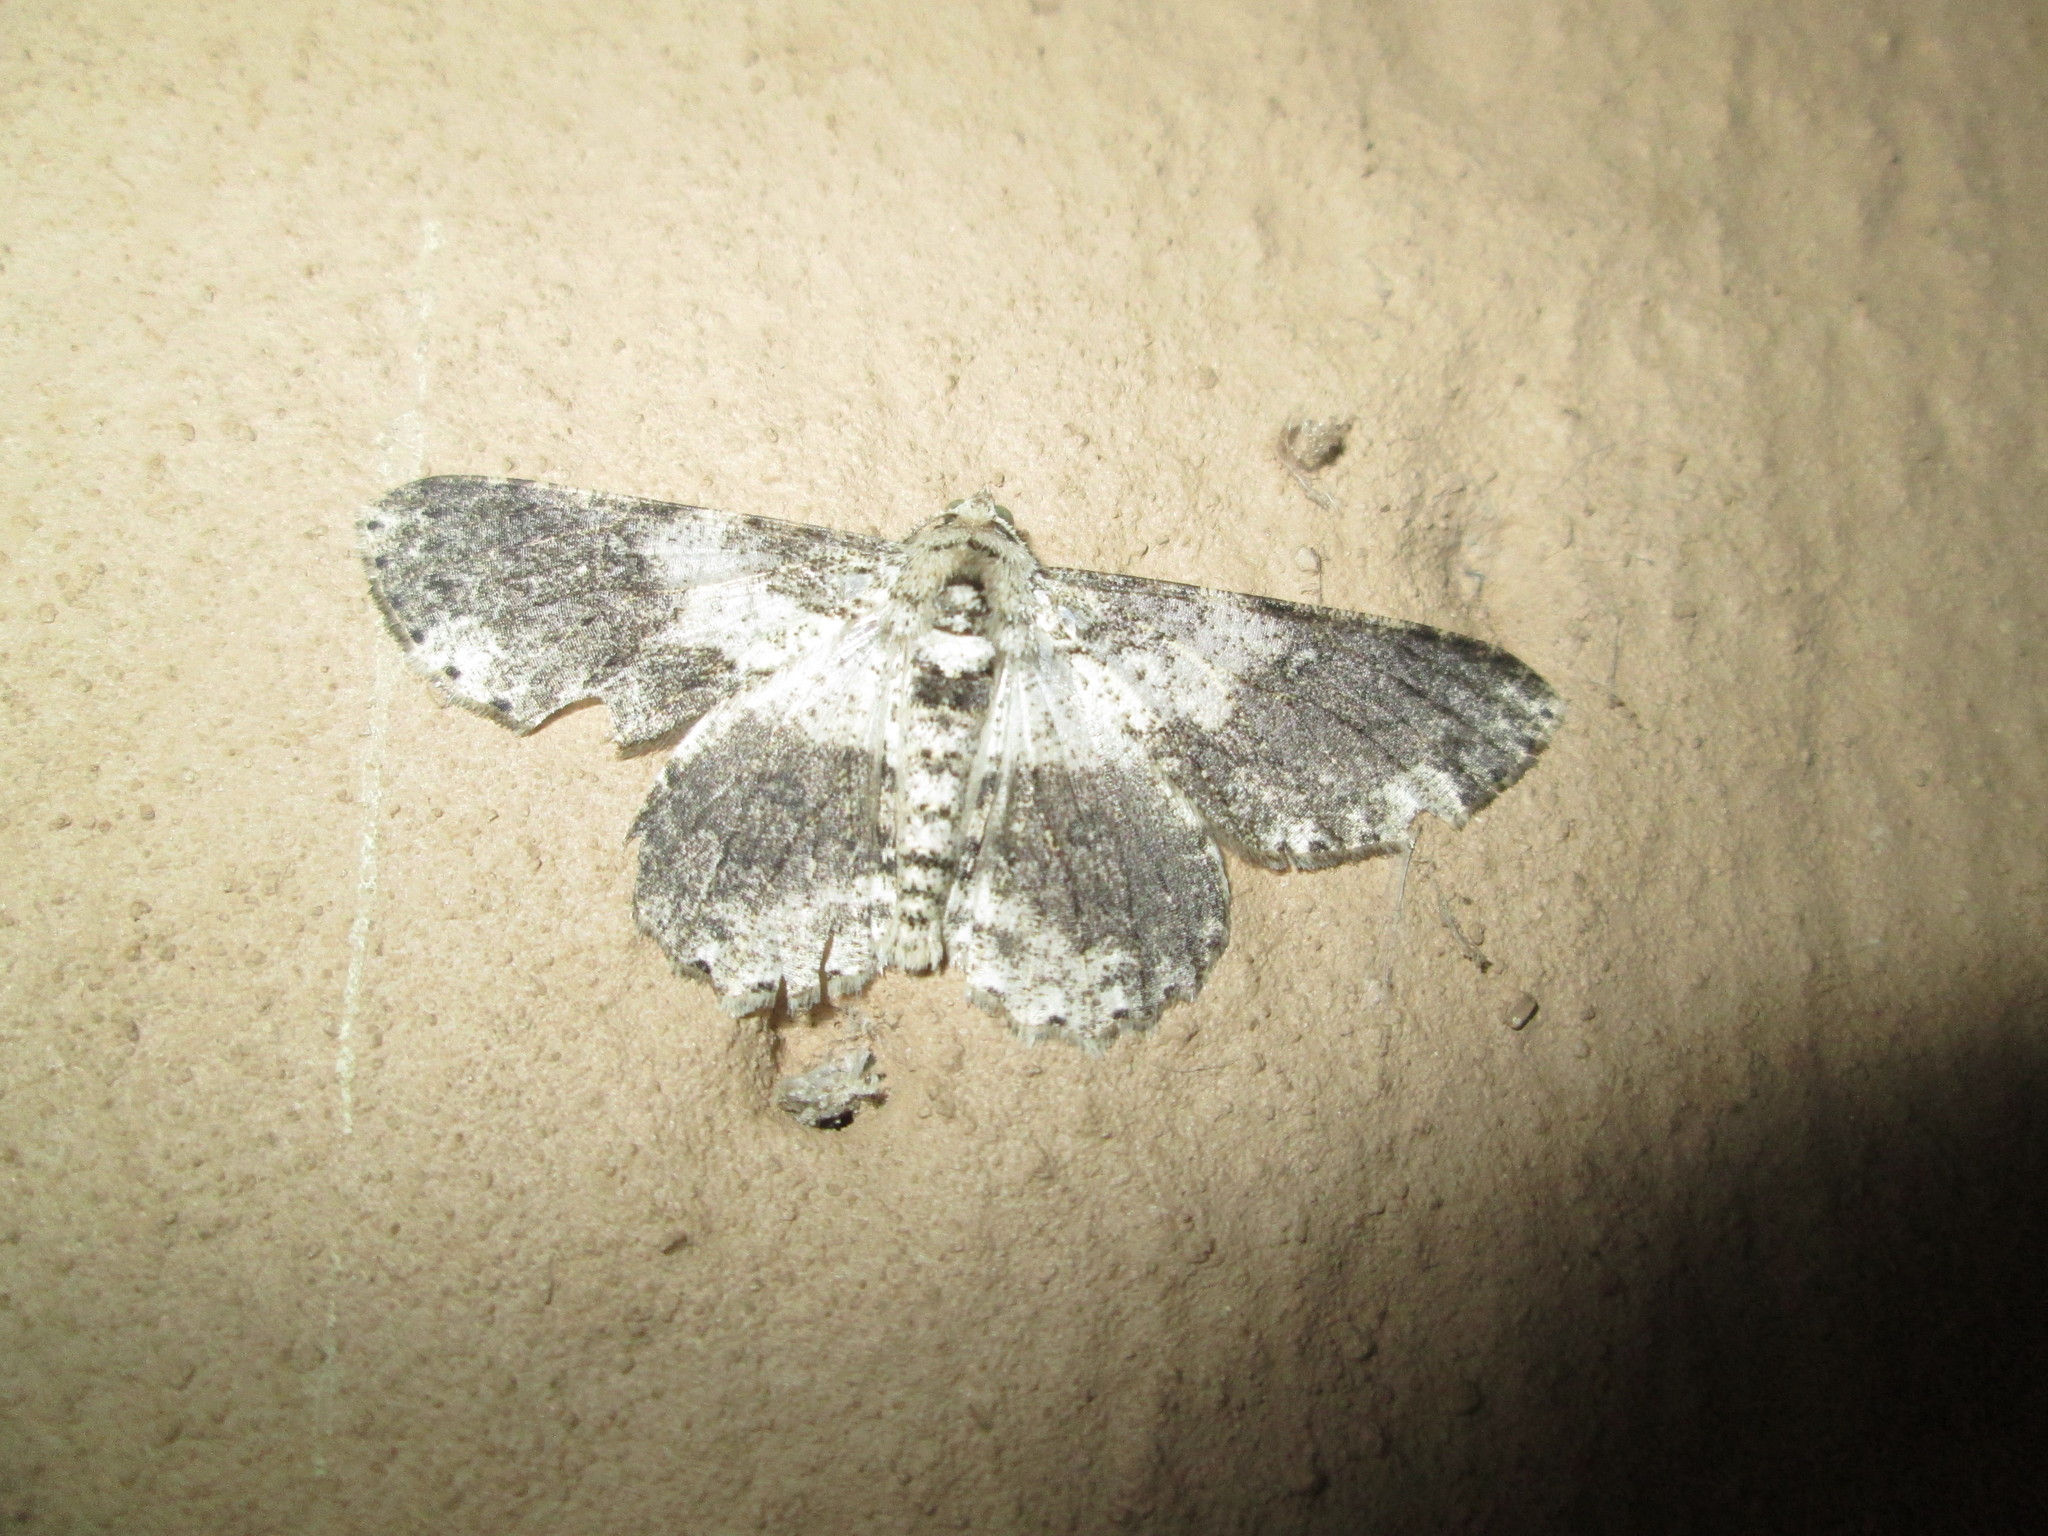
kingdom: Animalia
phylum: Arthropoda
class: Insecta
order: Lepidoptera
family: Geometridae
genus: Ascotis
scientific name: Ascotis selenaria
